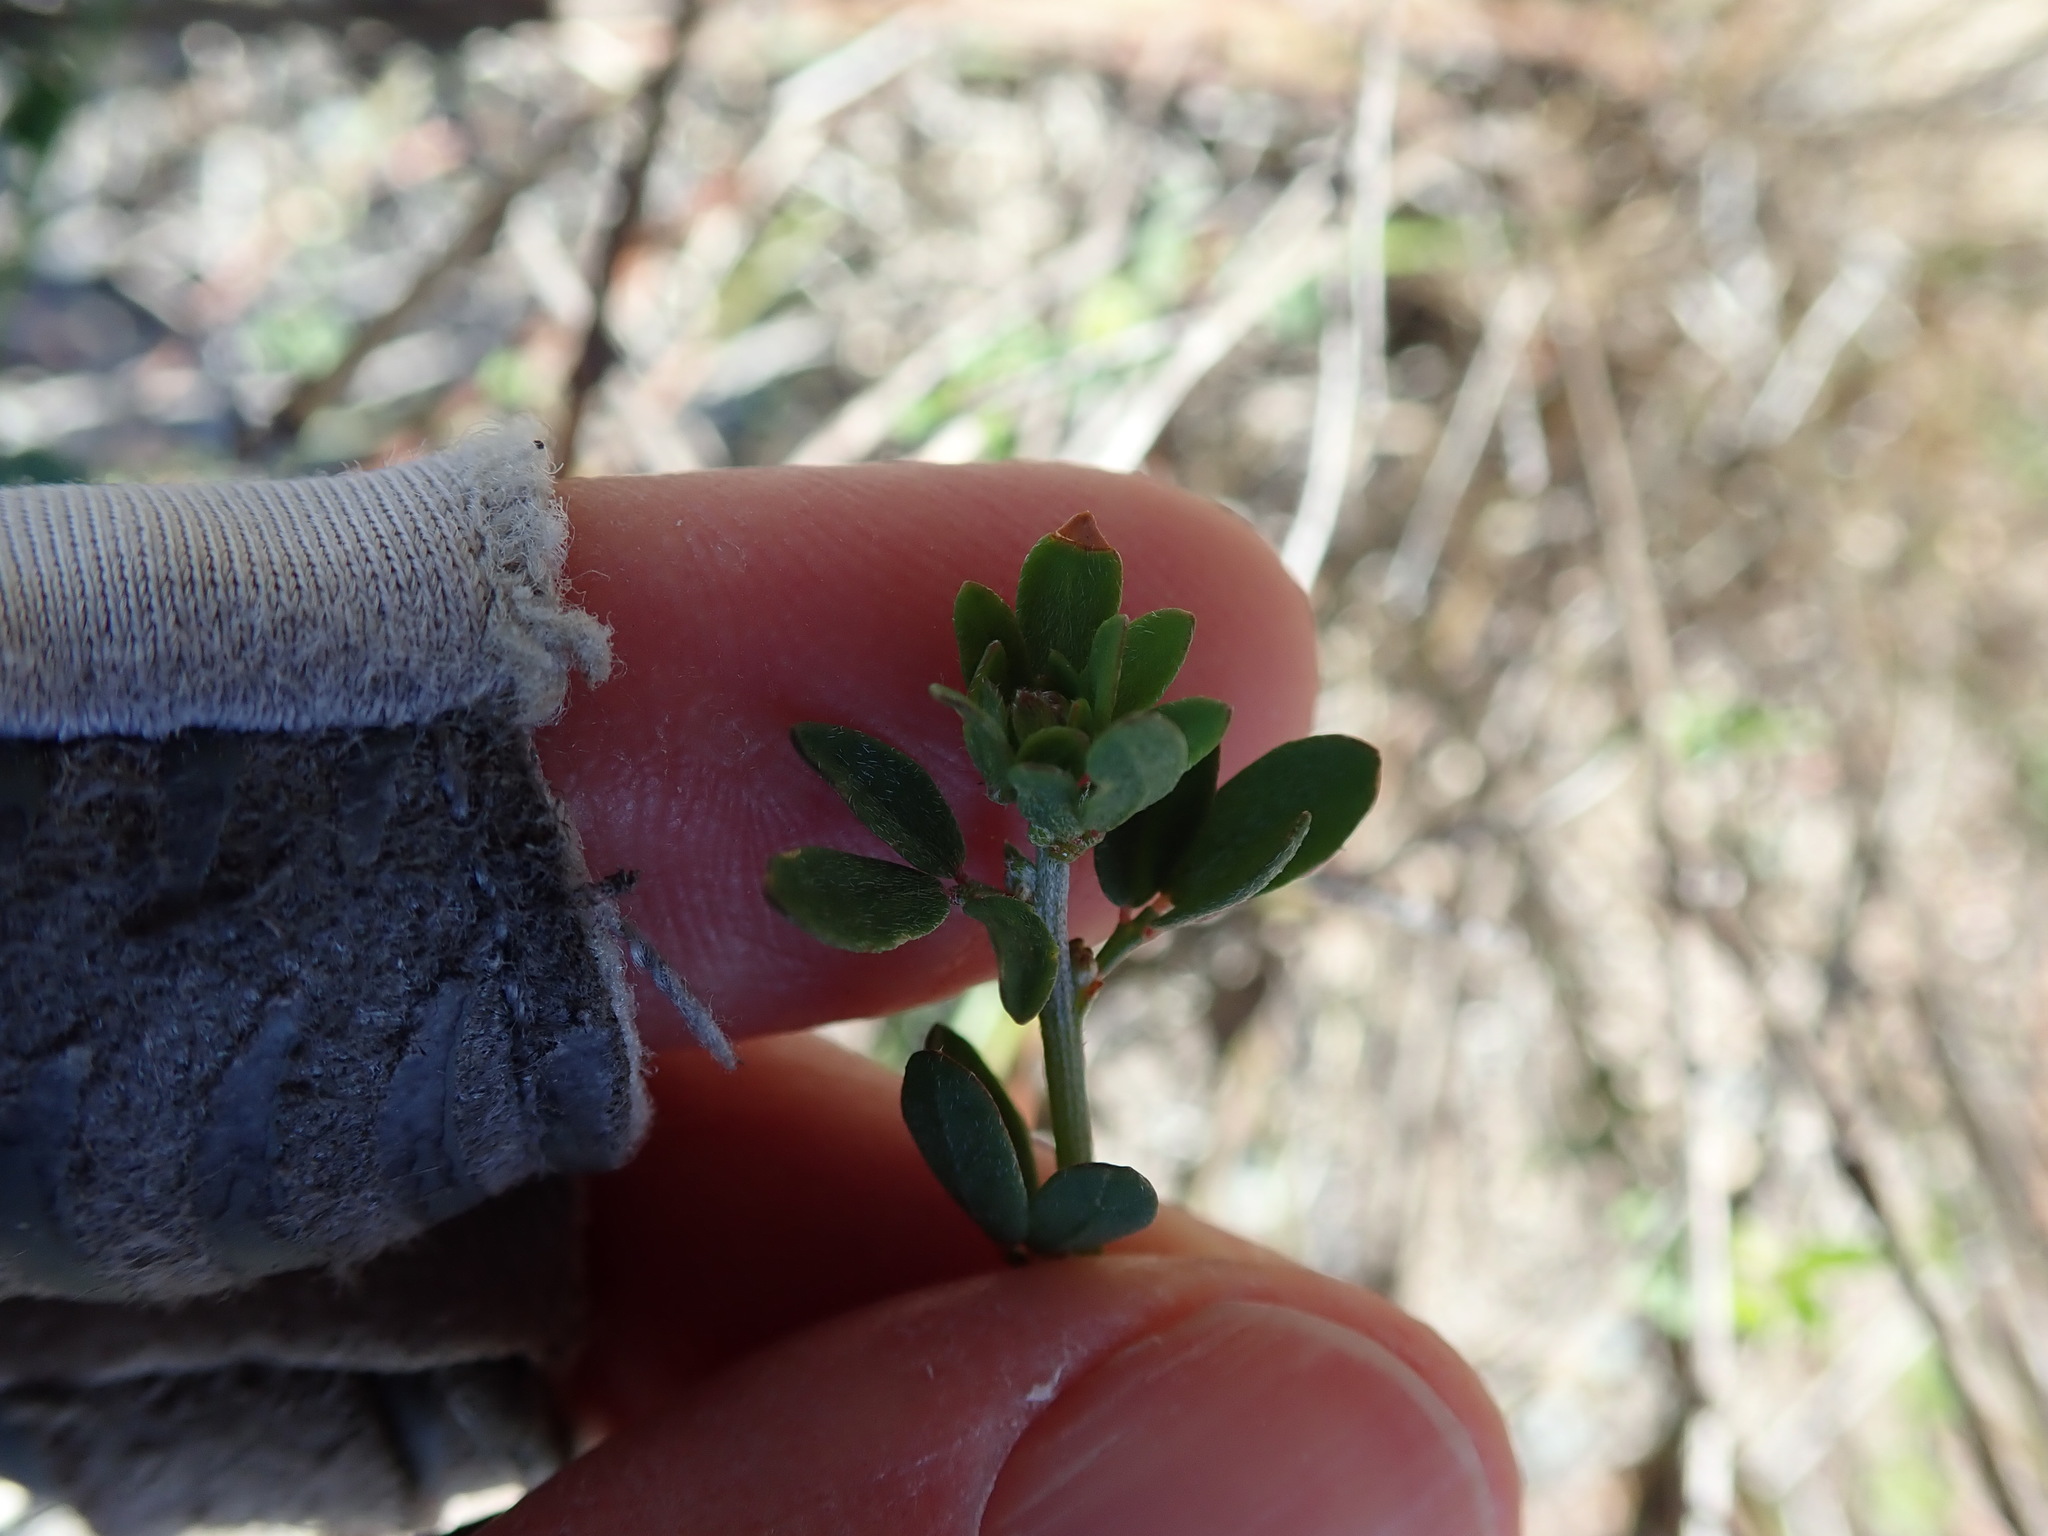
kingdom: Plantae
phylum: Tracheophyta
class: Magnoliopsida
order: Fabales
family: Fabaceae
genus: Acmispon
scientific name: Acmispon glaber
